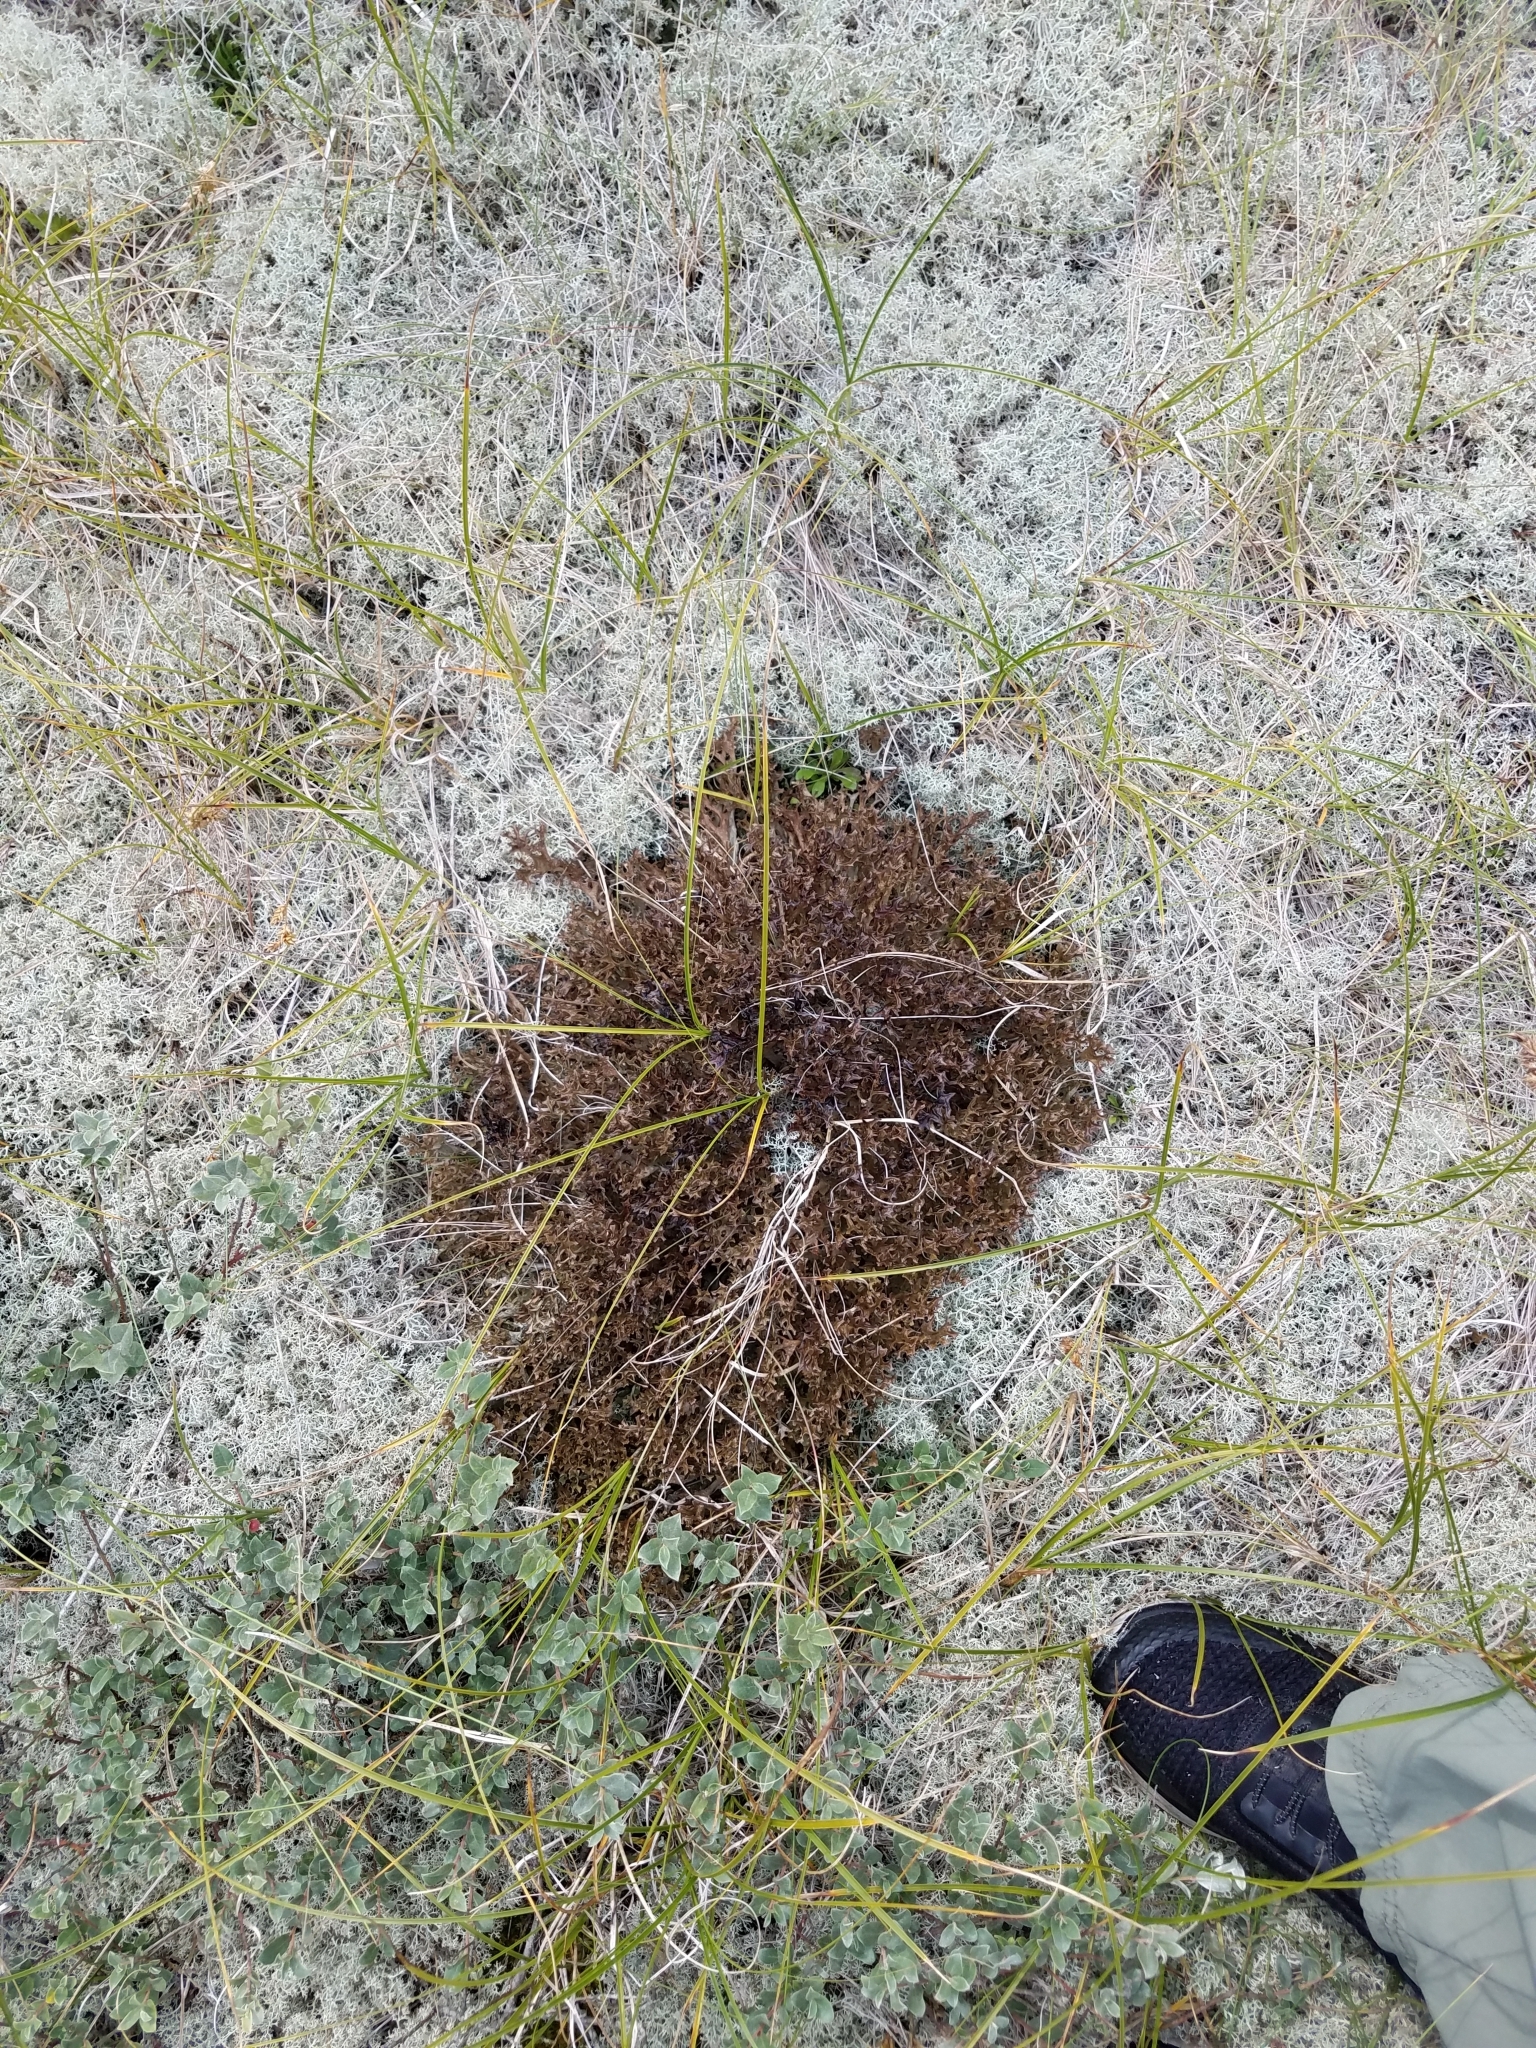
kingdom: Fungi
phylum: Ascomycota
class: Lecanoromycetes
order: Lecanorales
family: Parmeliaceae
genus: Cetraria
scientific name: Cetraria islandica
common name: Iceland lichen
